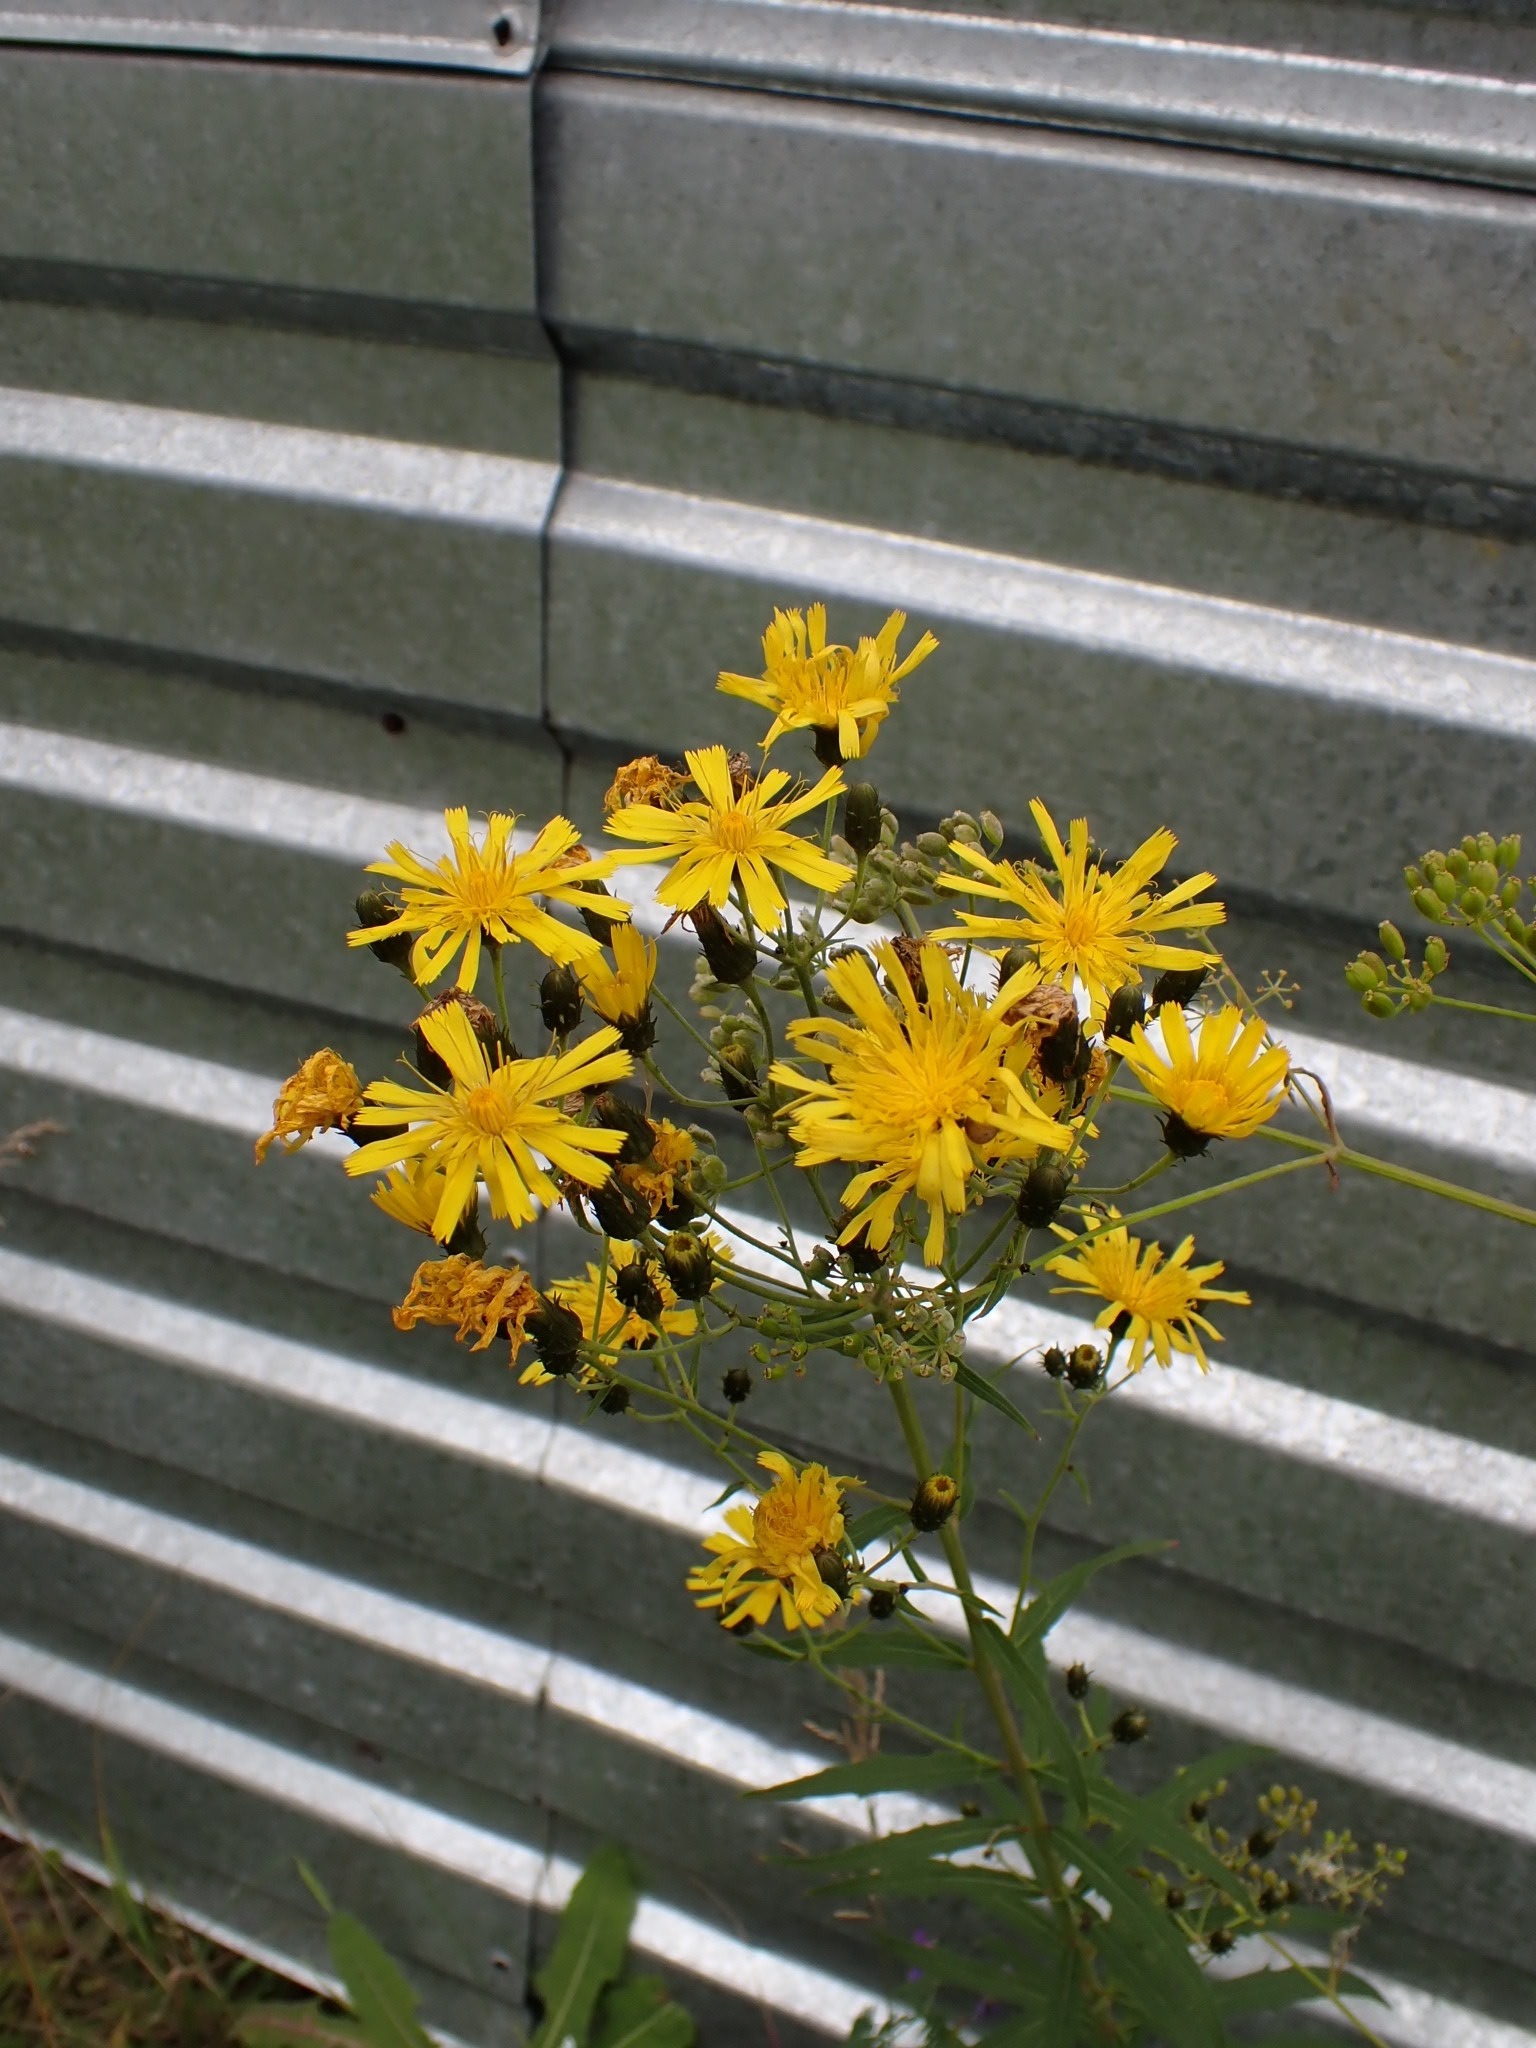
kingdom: Plantae
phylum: Tracheophyta
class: Magnoliopsida
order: Asterales
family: Asteraceae
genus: Hieracium
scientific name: Hieracium umbellatum
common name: Northern hawkweed
